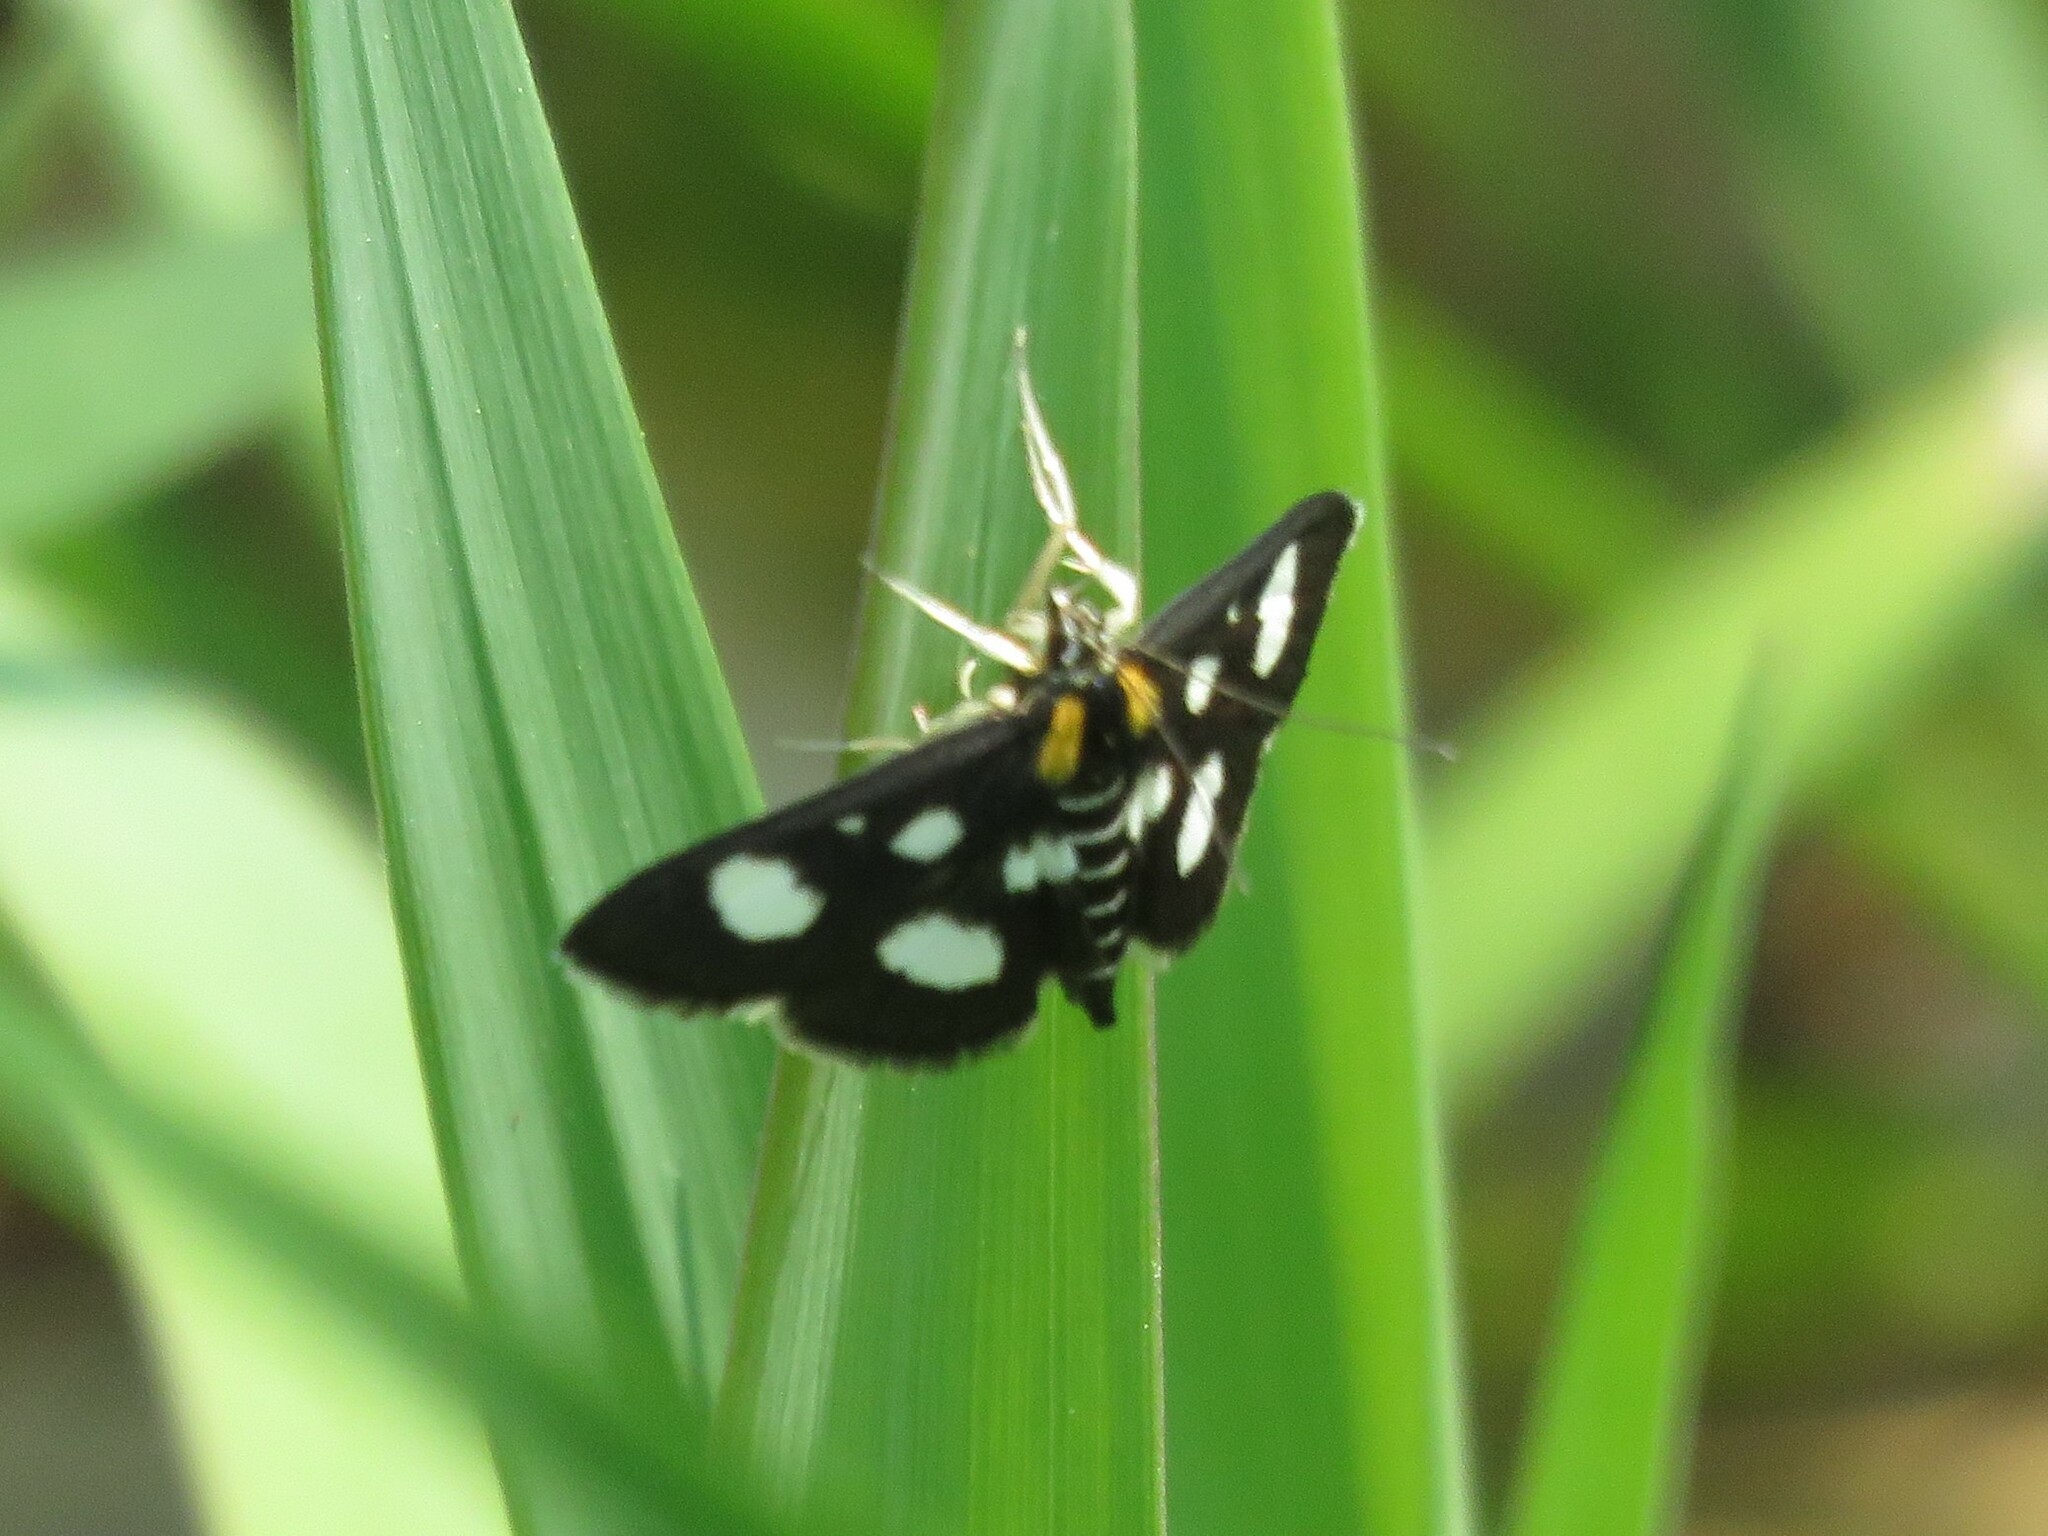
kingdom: Animalia
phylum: Arthropoda
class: Insecta
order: Lepidoptera
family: Crambidae
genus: Anania
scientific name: Anania funebris
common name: White-spotted sable moth
